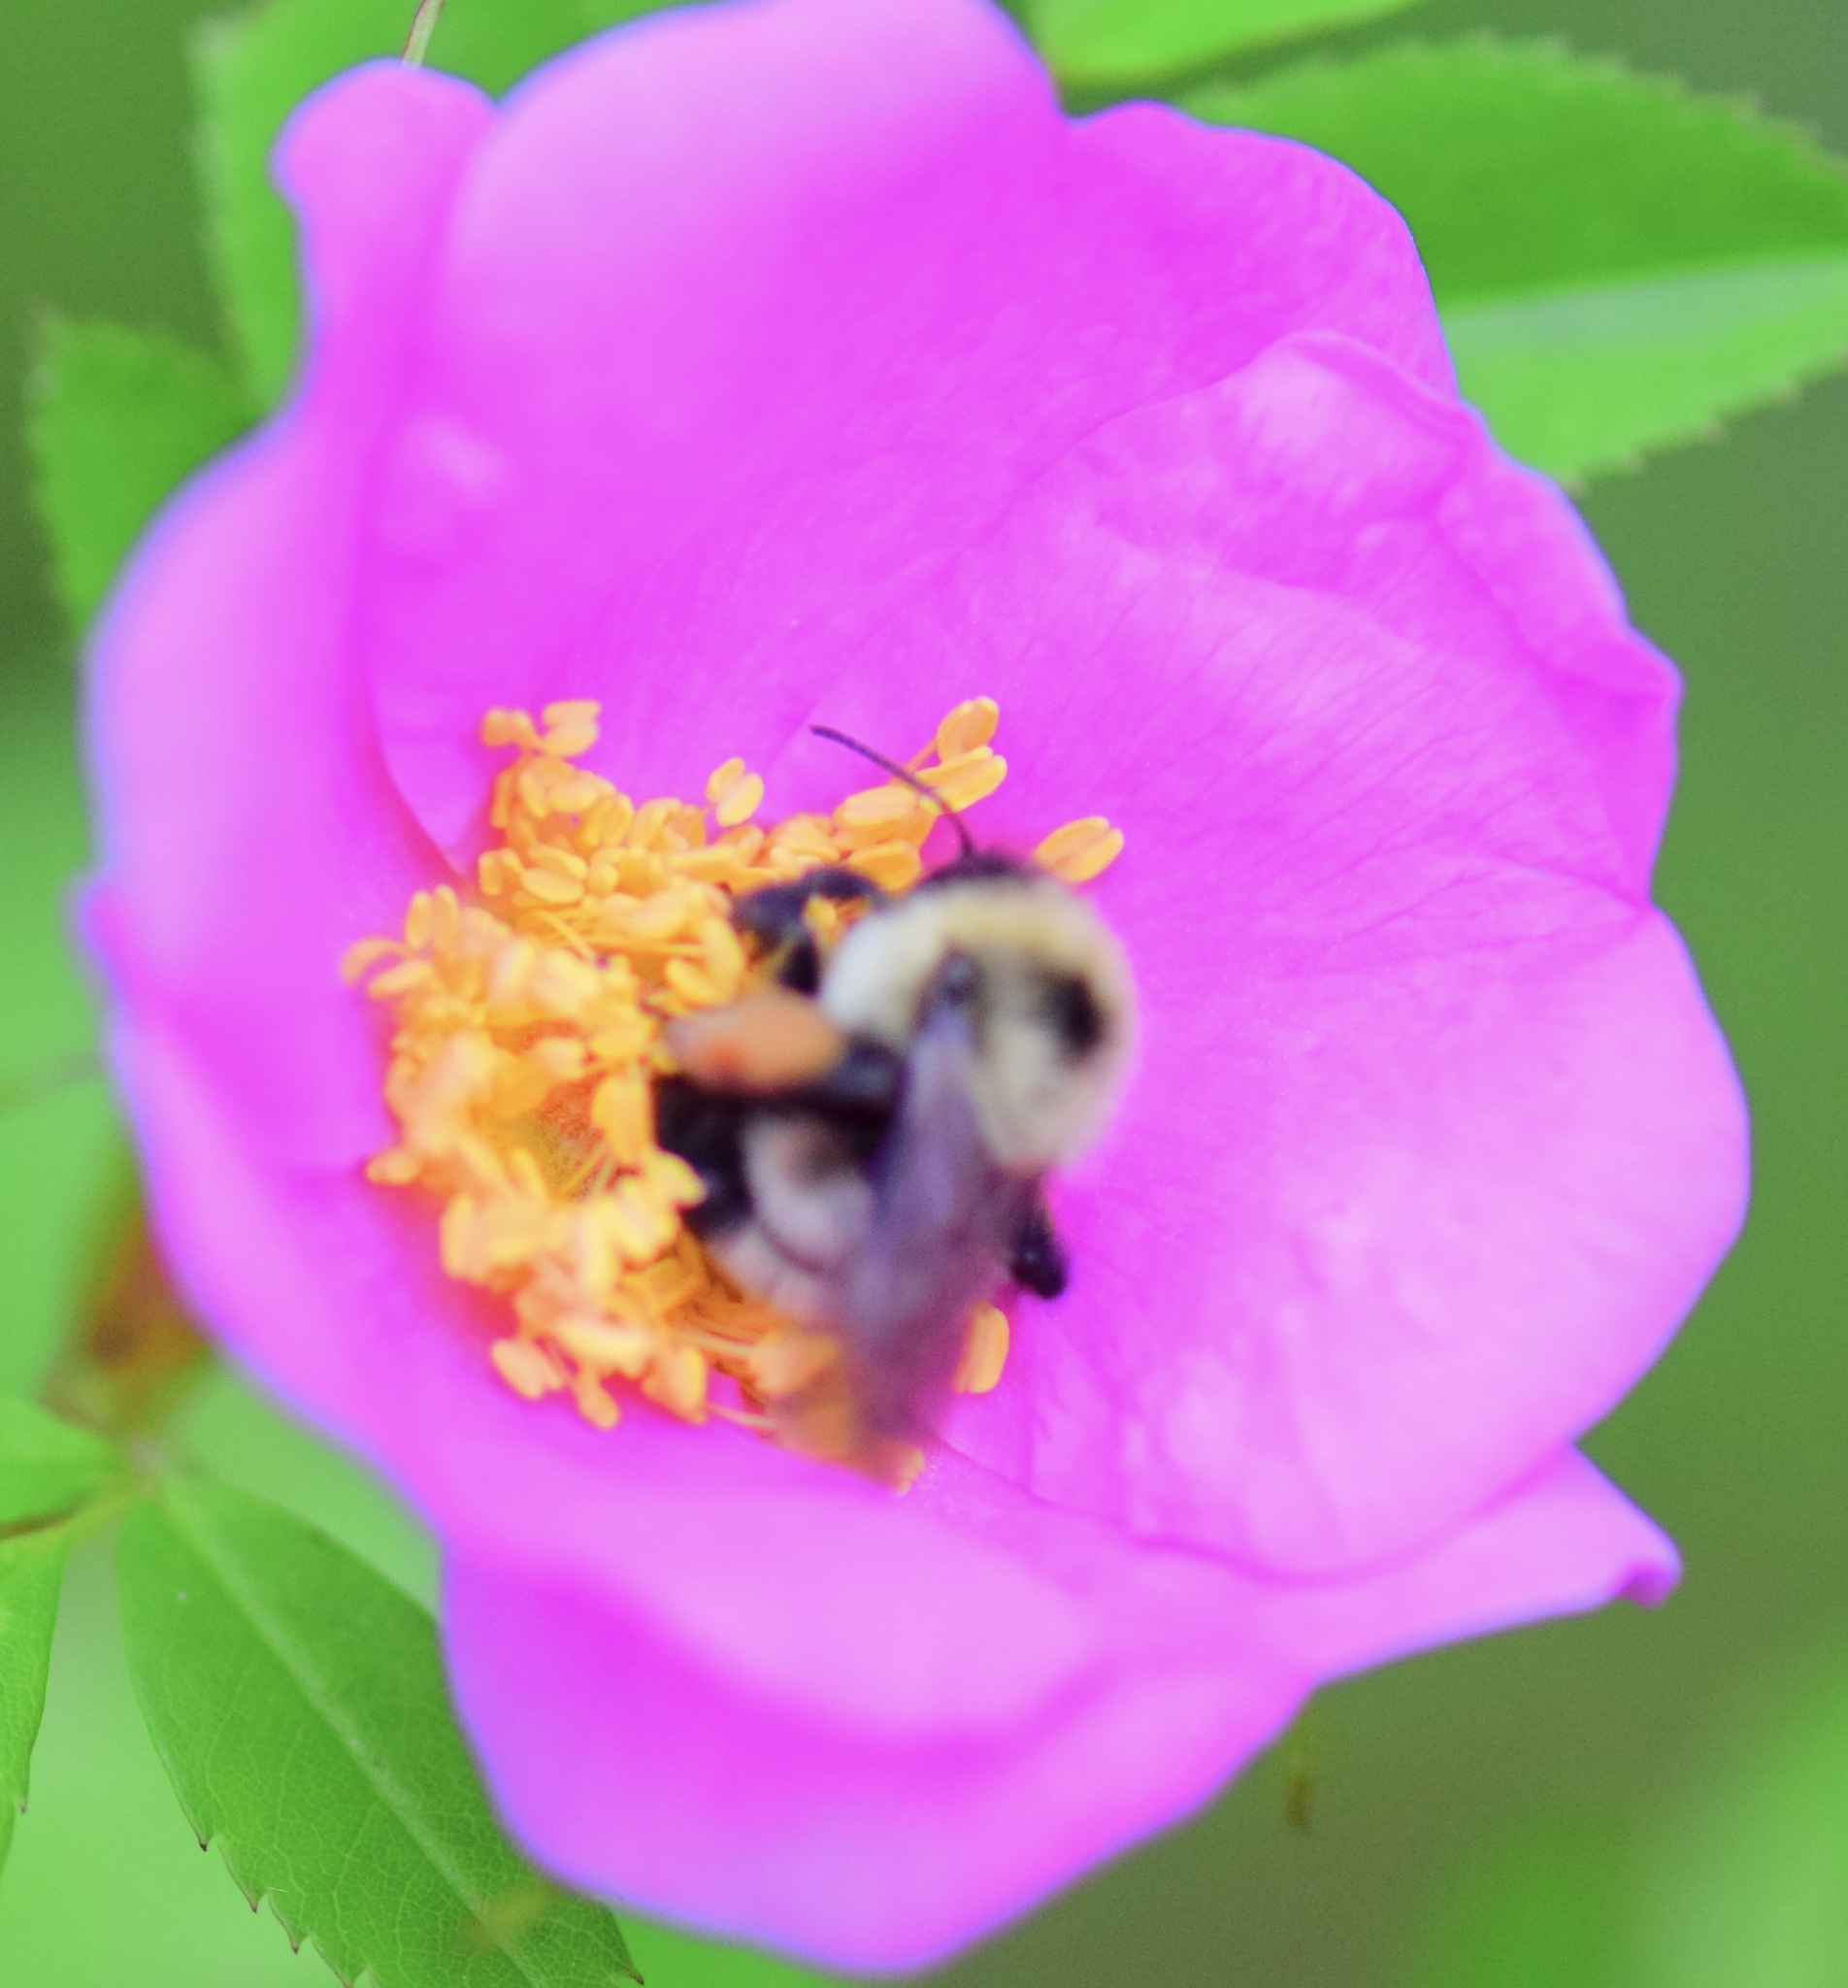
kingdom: Animalia
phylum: Arthropoda
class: Insecta
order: Hymenoptera
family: Apidae
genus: Bombus
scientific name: Bombus bimaculatus
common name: Two-spotted bumble bee
